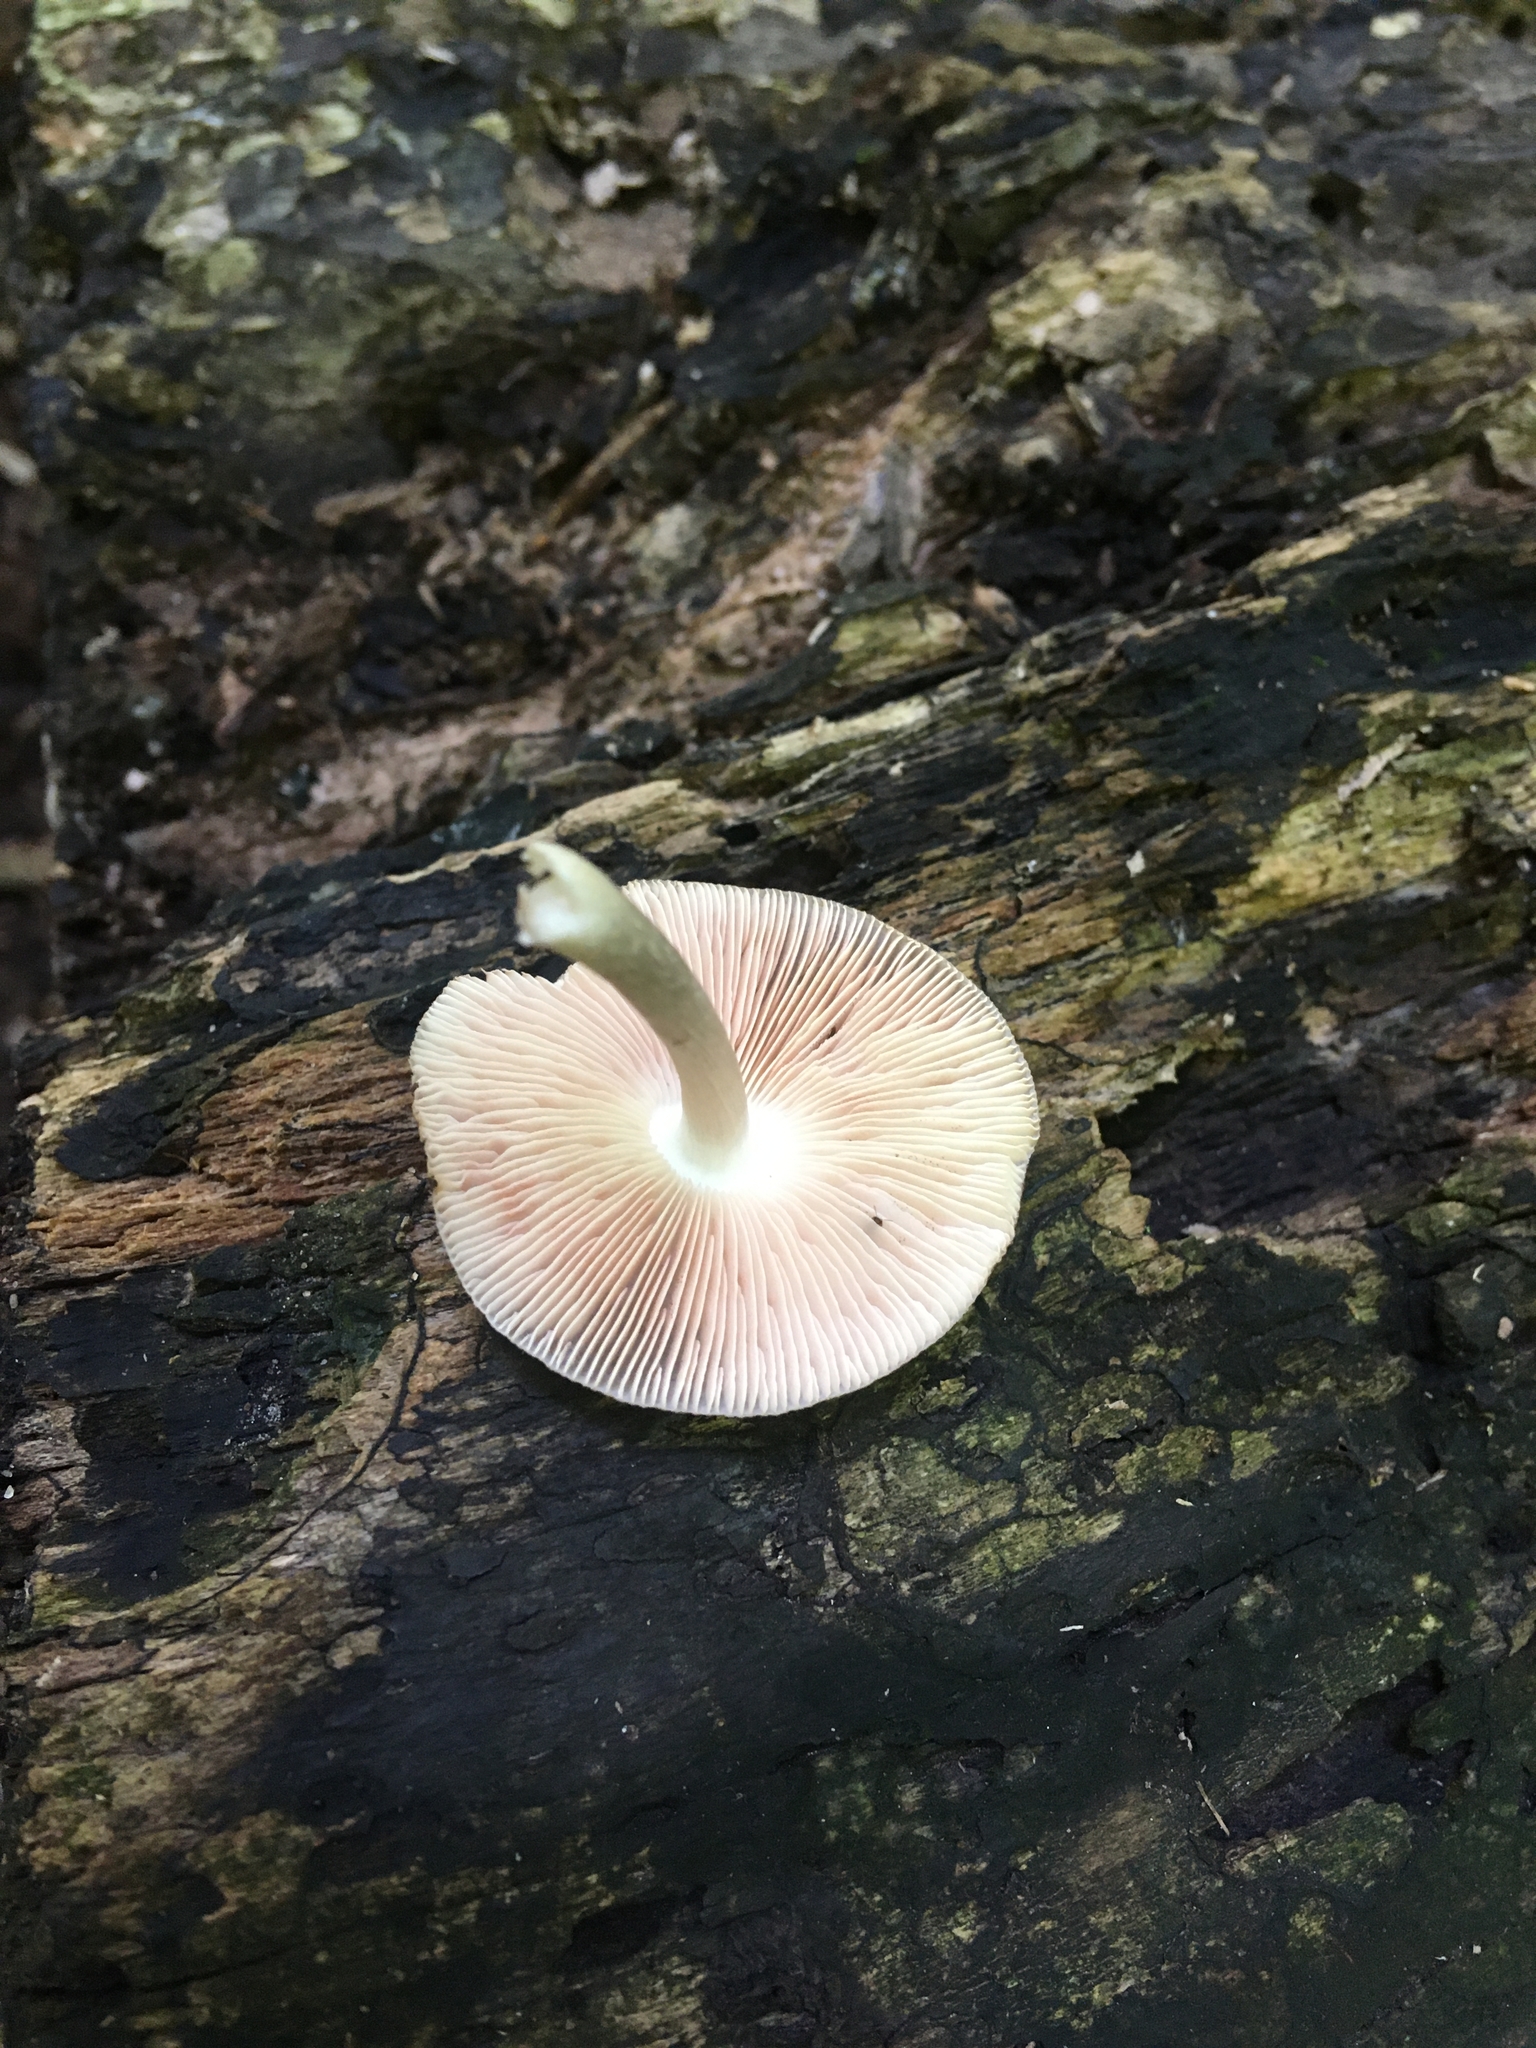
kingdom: Fungi
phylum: Basidiomycota
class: Agaricomycetes
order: Agaricales
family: Pluteaceae
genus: Pluteus
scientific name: Pluteus septocystidiatus
